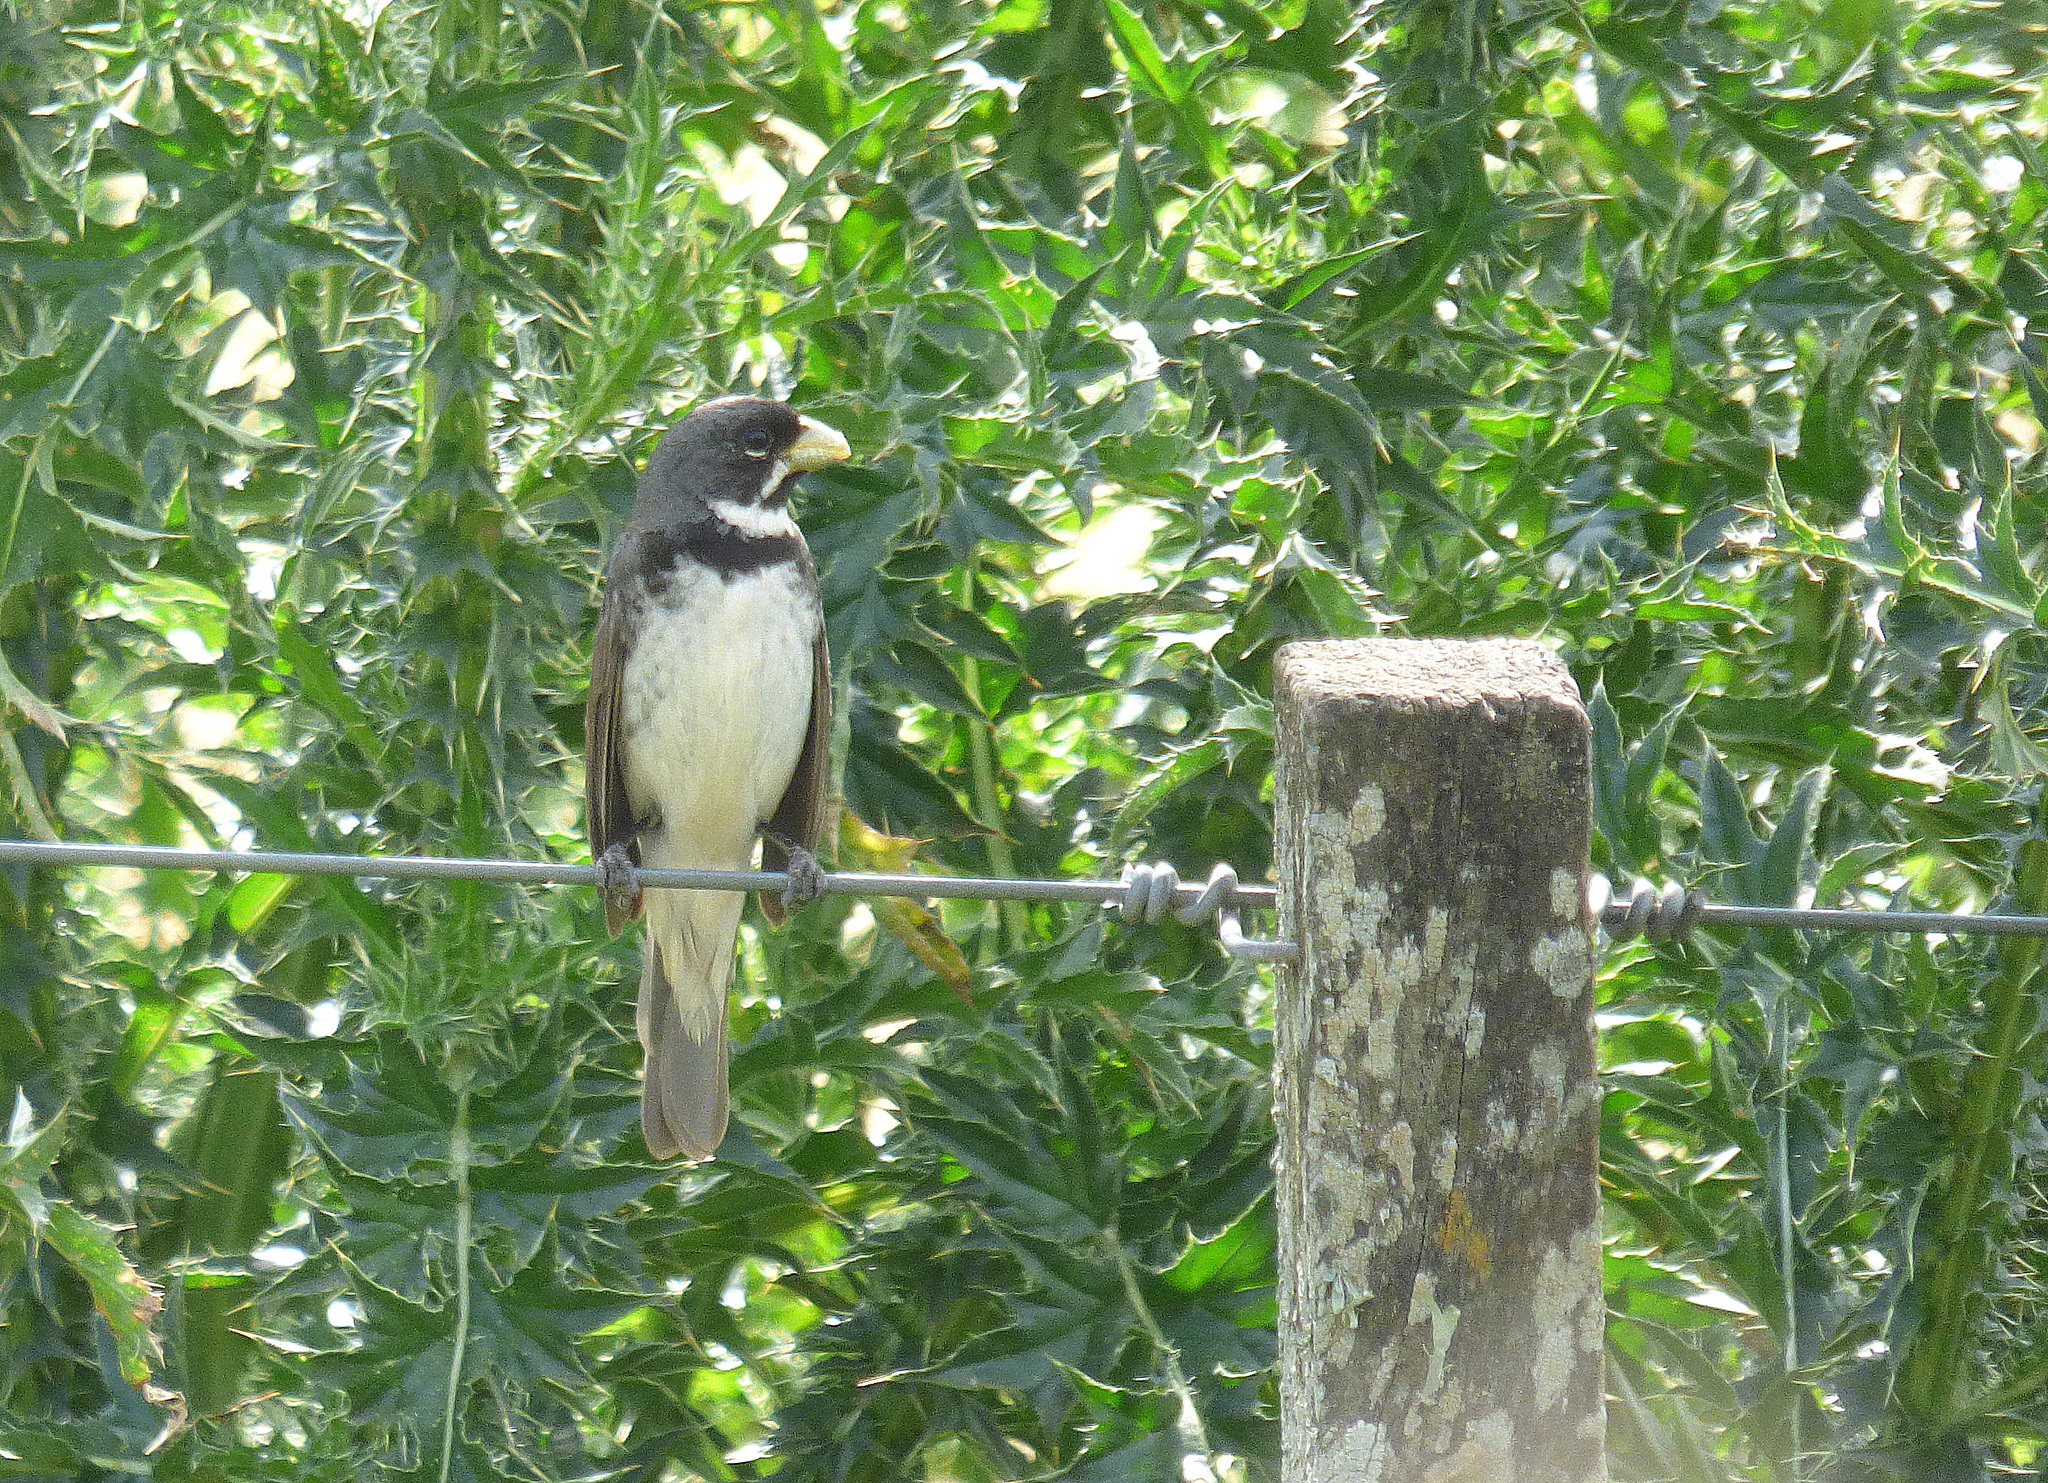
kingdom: Animalia
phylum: Chordata
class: Aves
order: Passeriformes
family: Thraupidae
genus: Sporophila
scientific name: Sporophila caerulescens
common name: Double-collared seedeater
